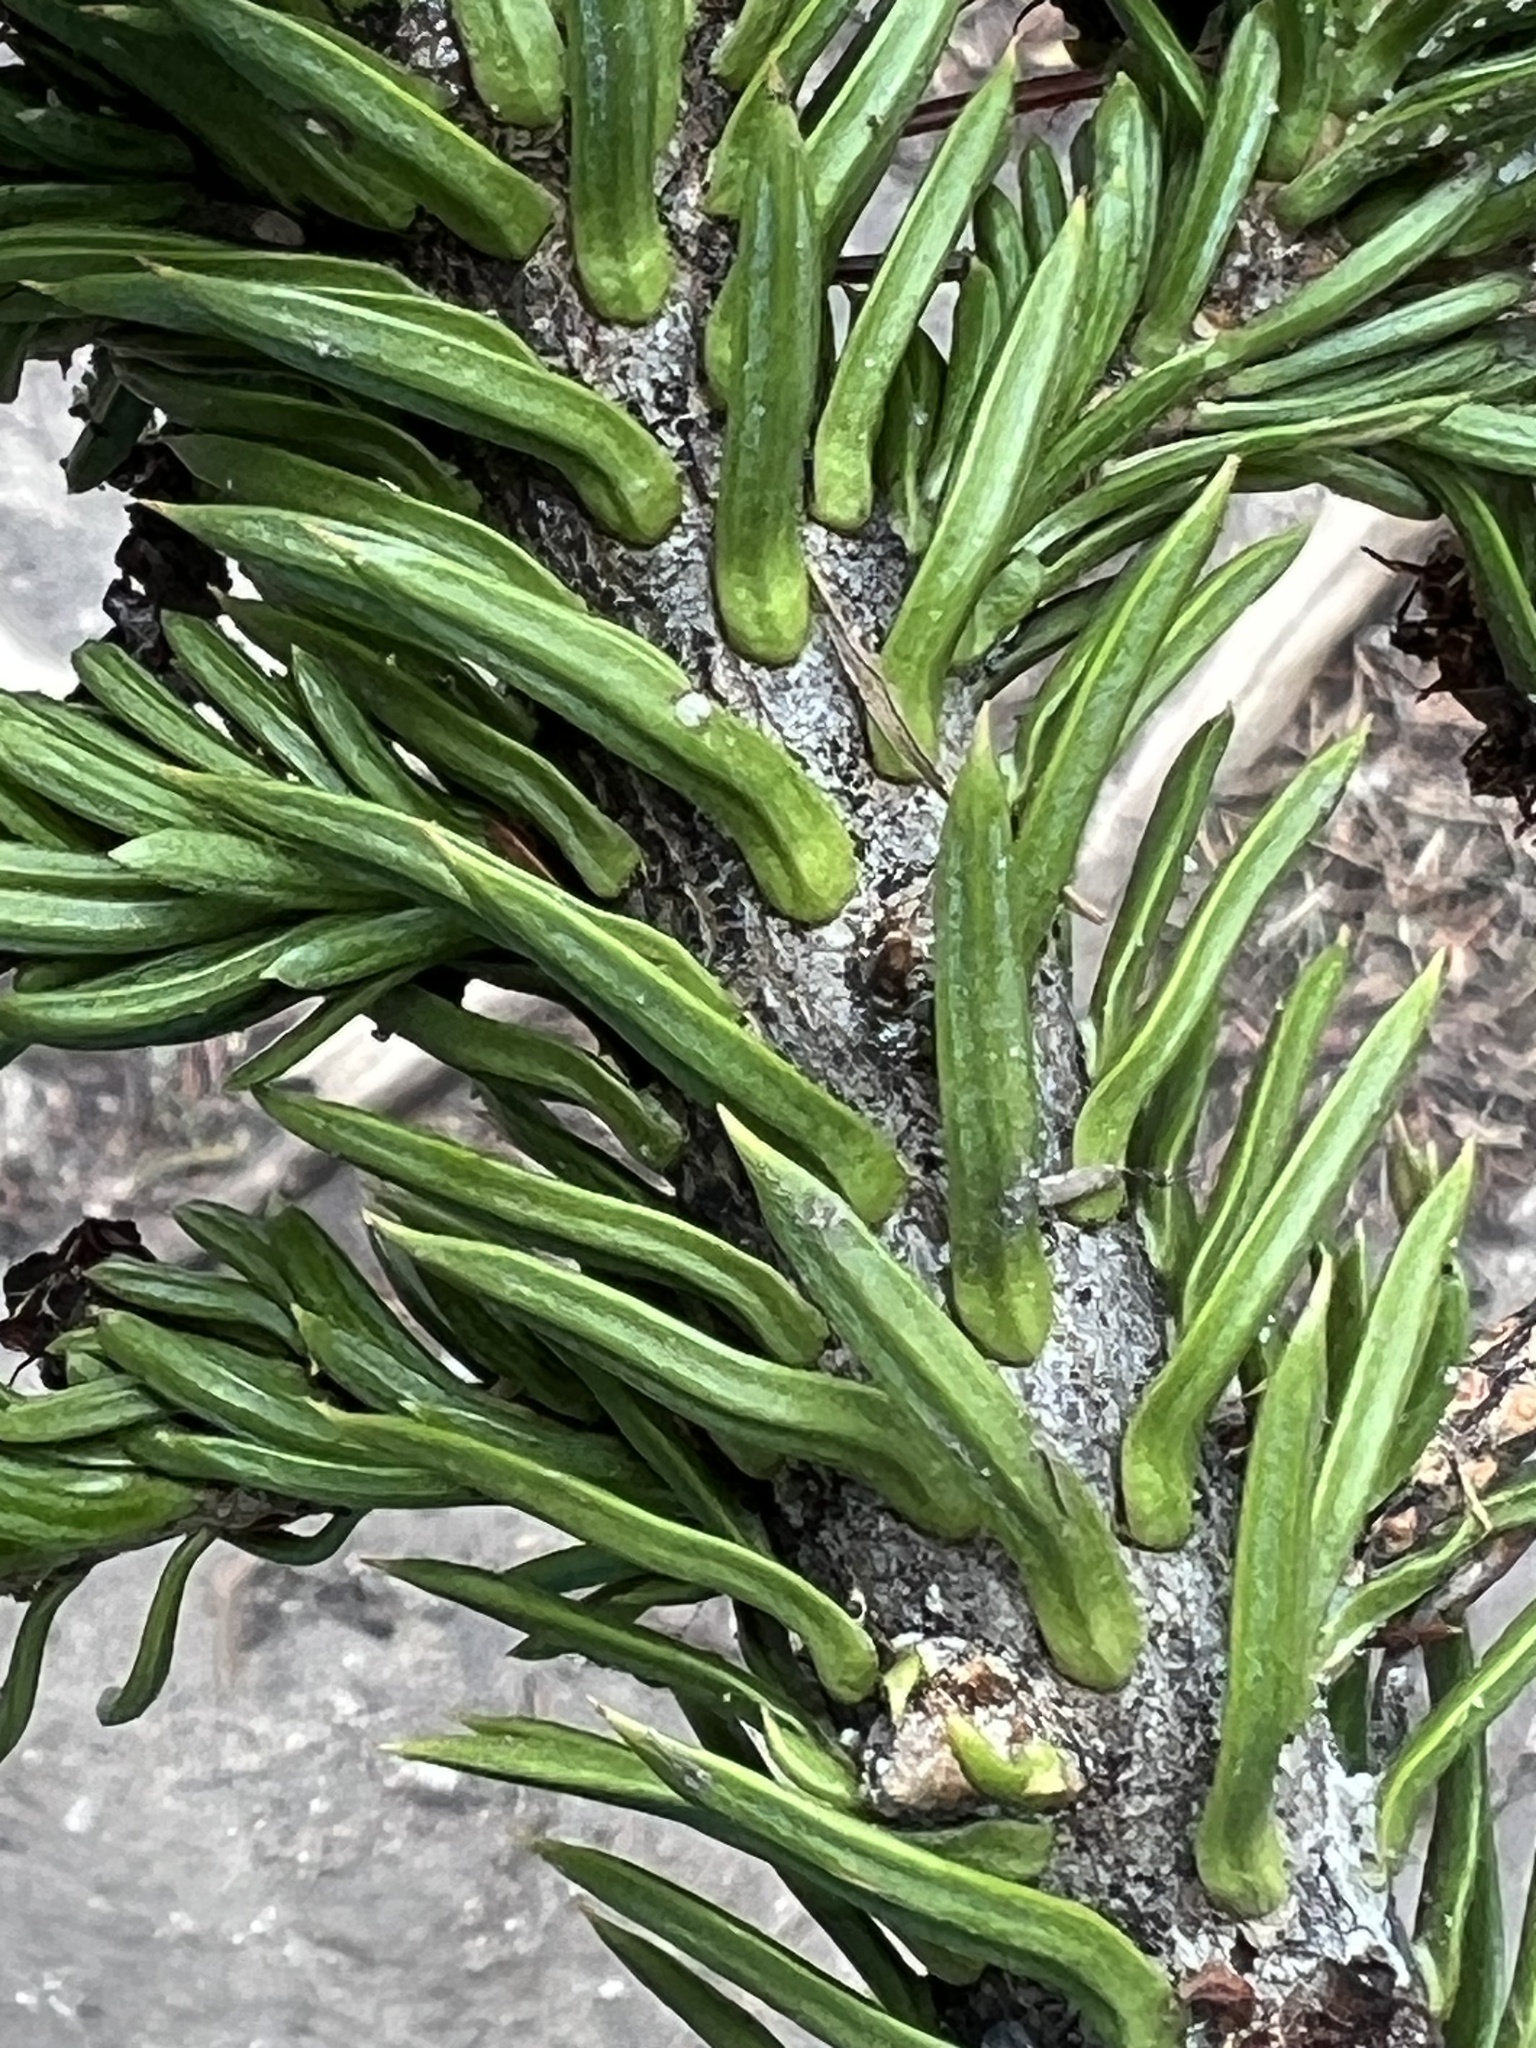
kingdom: Plantae
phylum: Tracheophyta
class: Pinopsida
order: Pinales
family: Pinaceae
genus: Abies
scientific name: Abies lasiocarpa
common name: Subalpine fir
